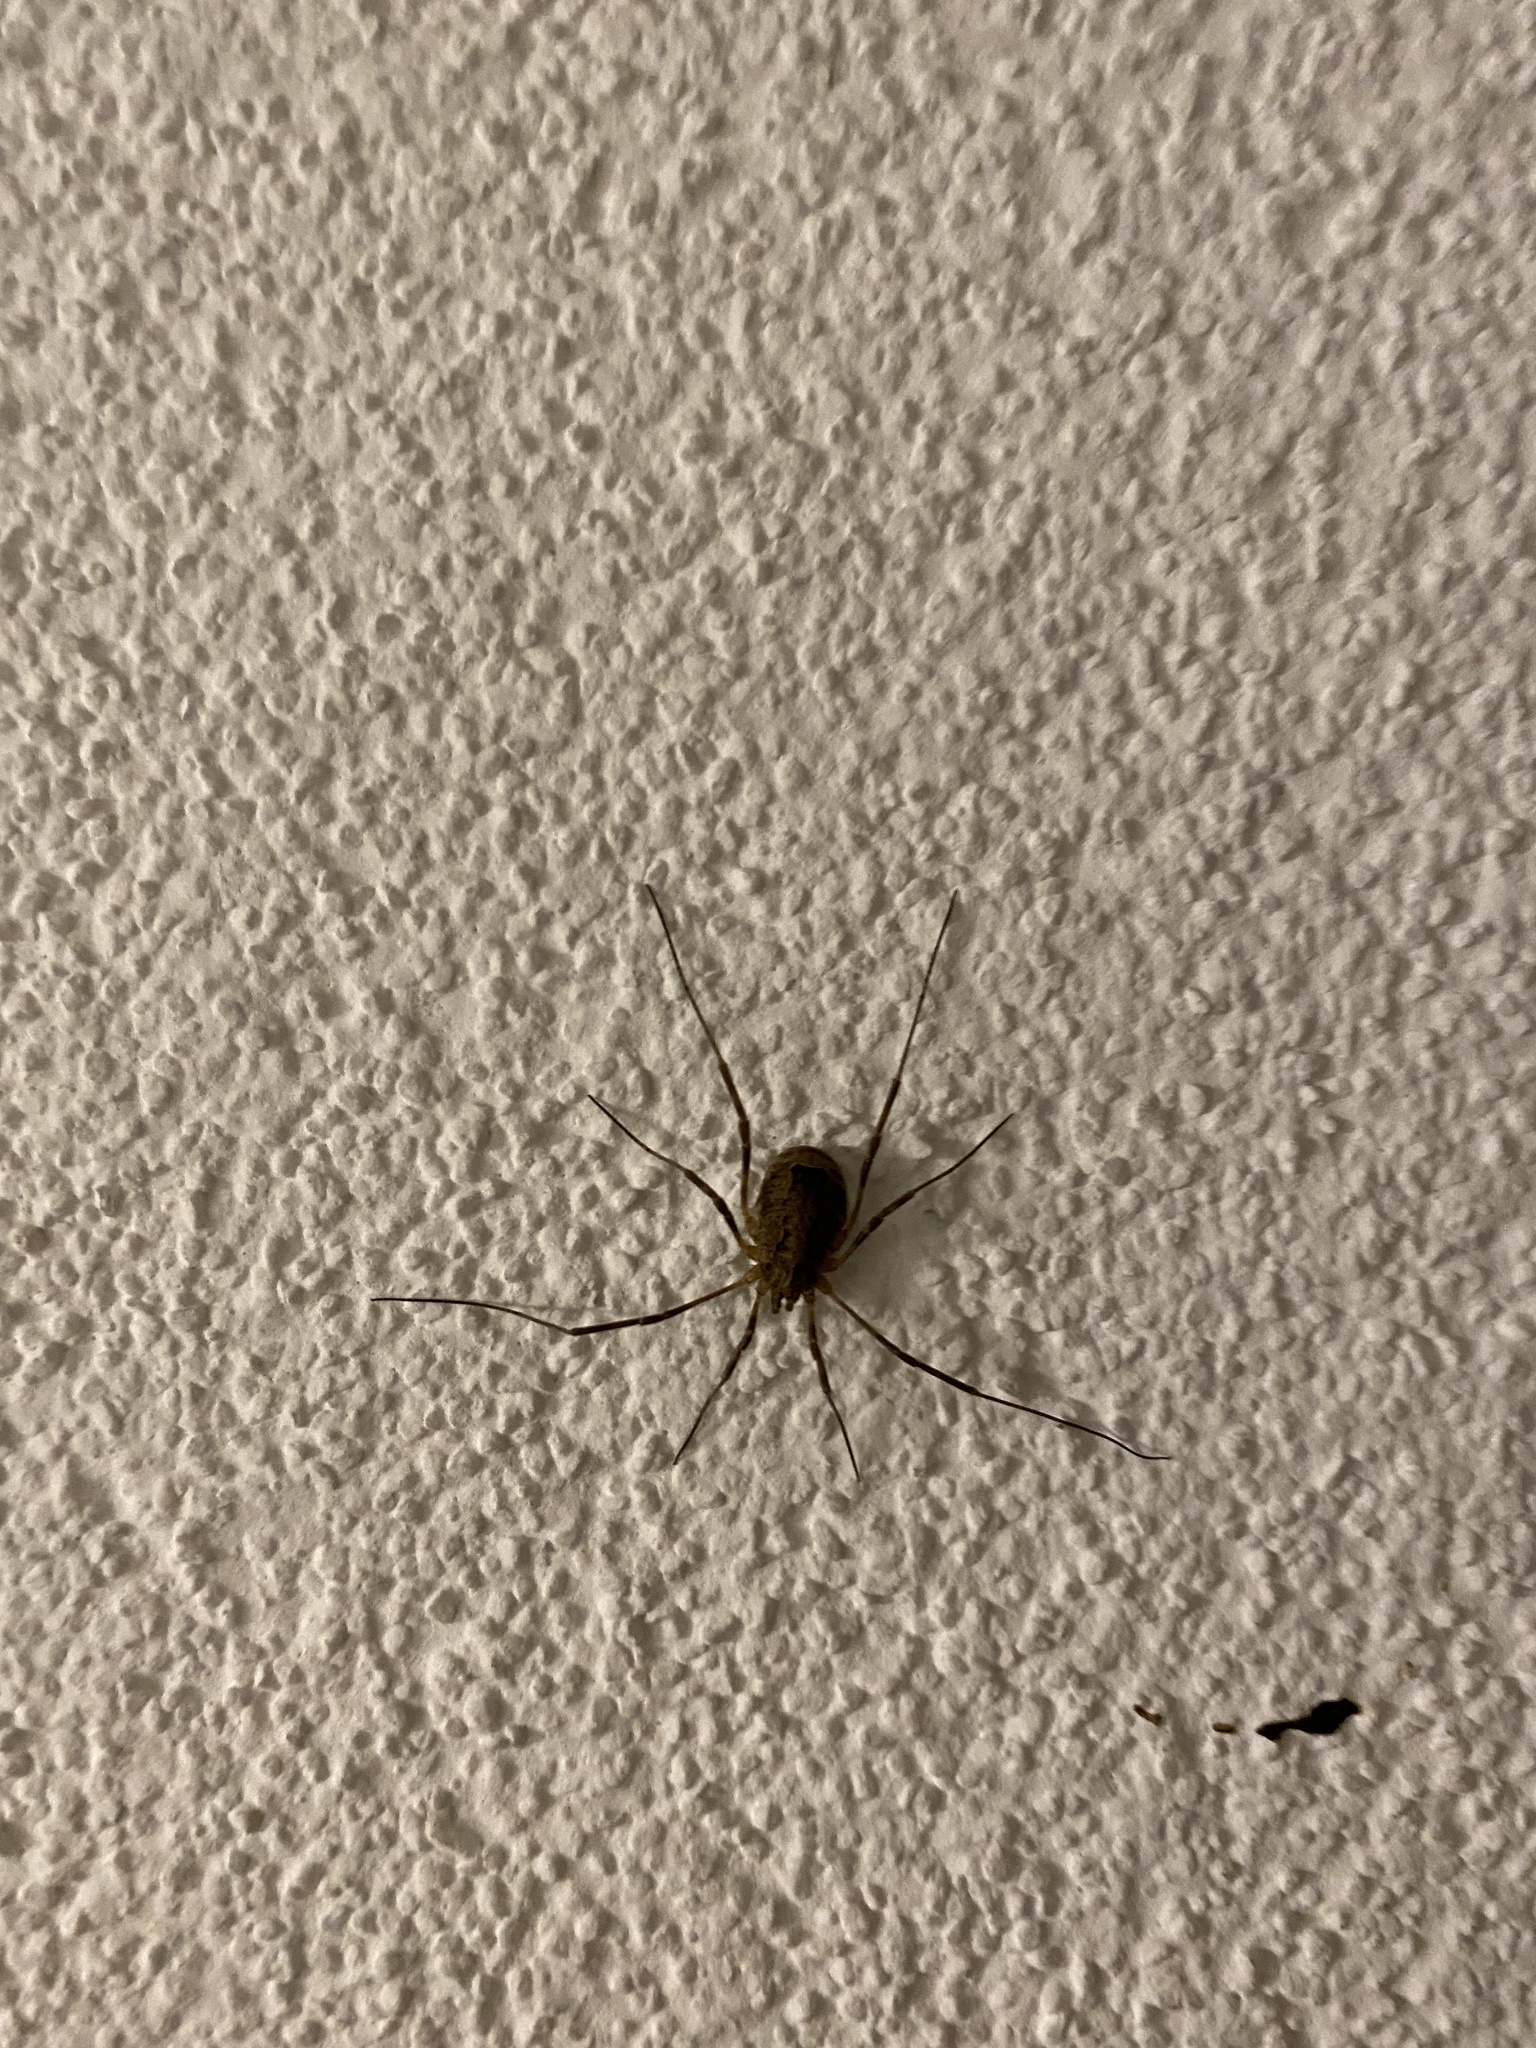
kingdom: Animalia
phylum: Arthropoda
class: Arachnida
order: Opiliones
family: Phalangiidae
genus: Odiellus
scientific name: Odiellus spinosus
